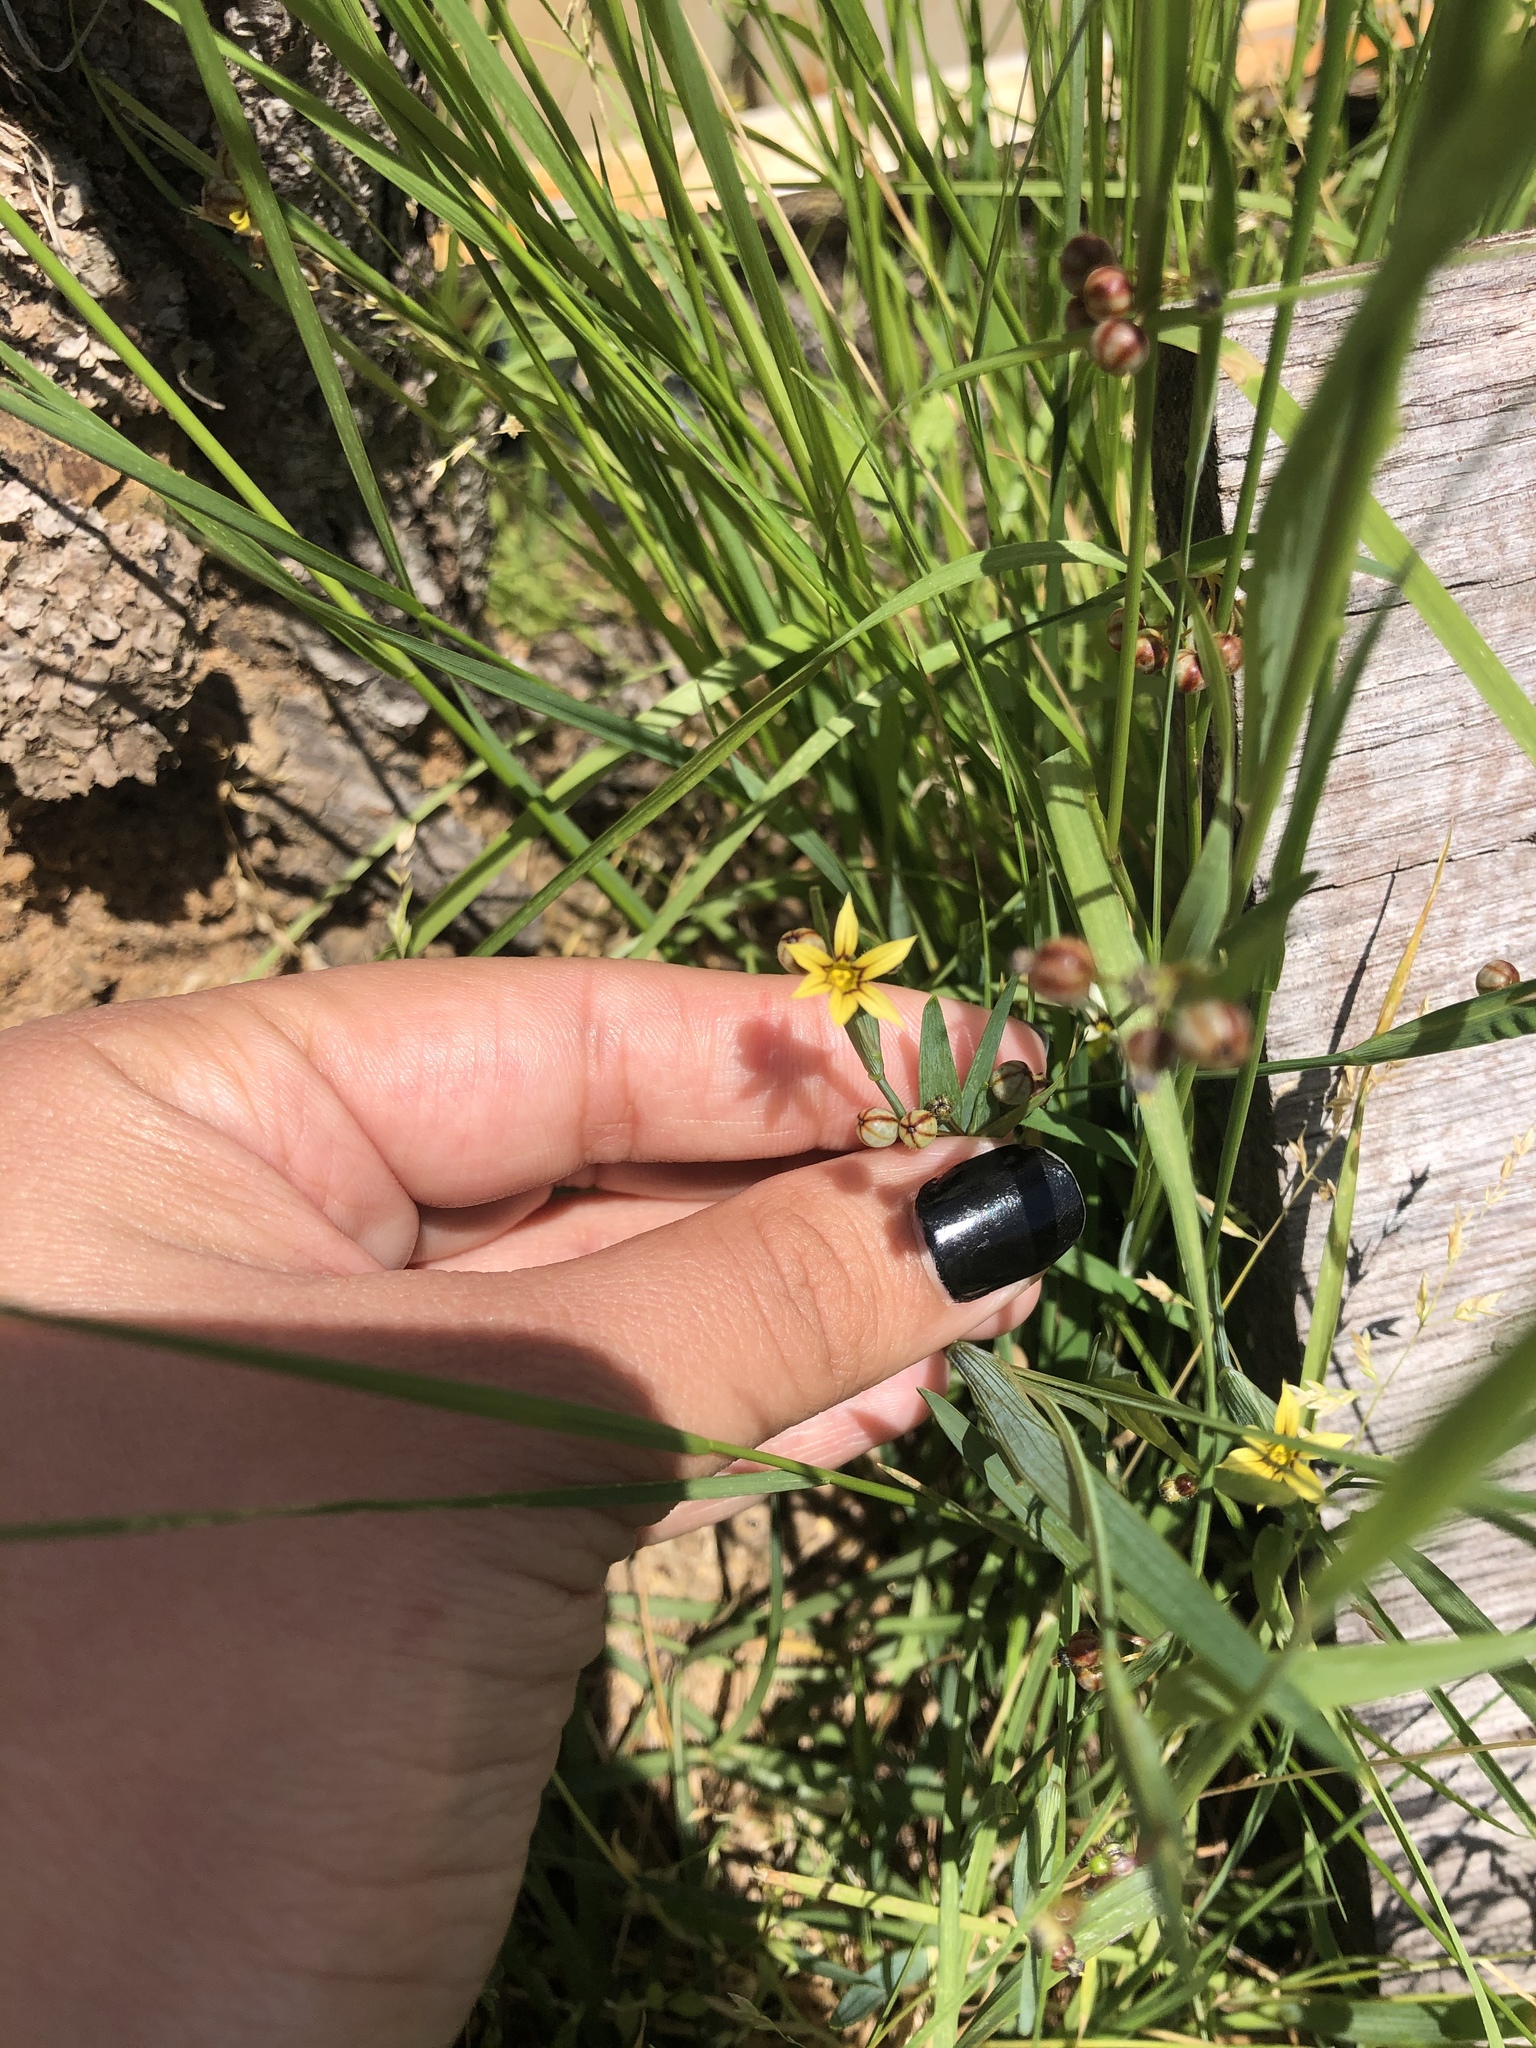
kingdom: Plantae
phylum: Tracheophyta
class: Liliopsida
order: Asparagales
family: Iridaceae
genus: Sisyrinchium
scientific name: Sisyrinchium micranthum
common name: Bermuda pigroot
